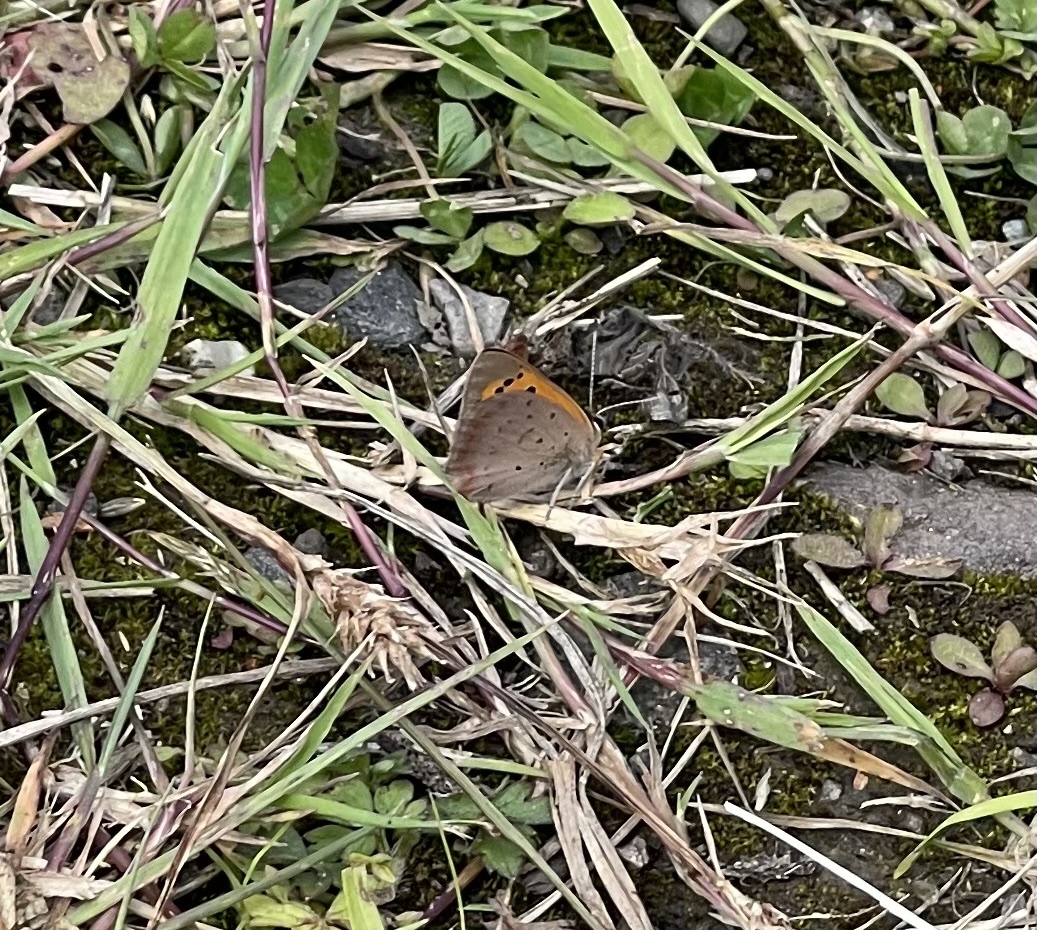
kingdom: Animalia
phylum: Arthropoda
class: Insecta
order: Lepidoptera
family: Lycaenidae
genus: Lycaena
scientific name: Lycaena phlaeas
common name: Small copper
